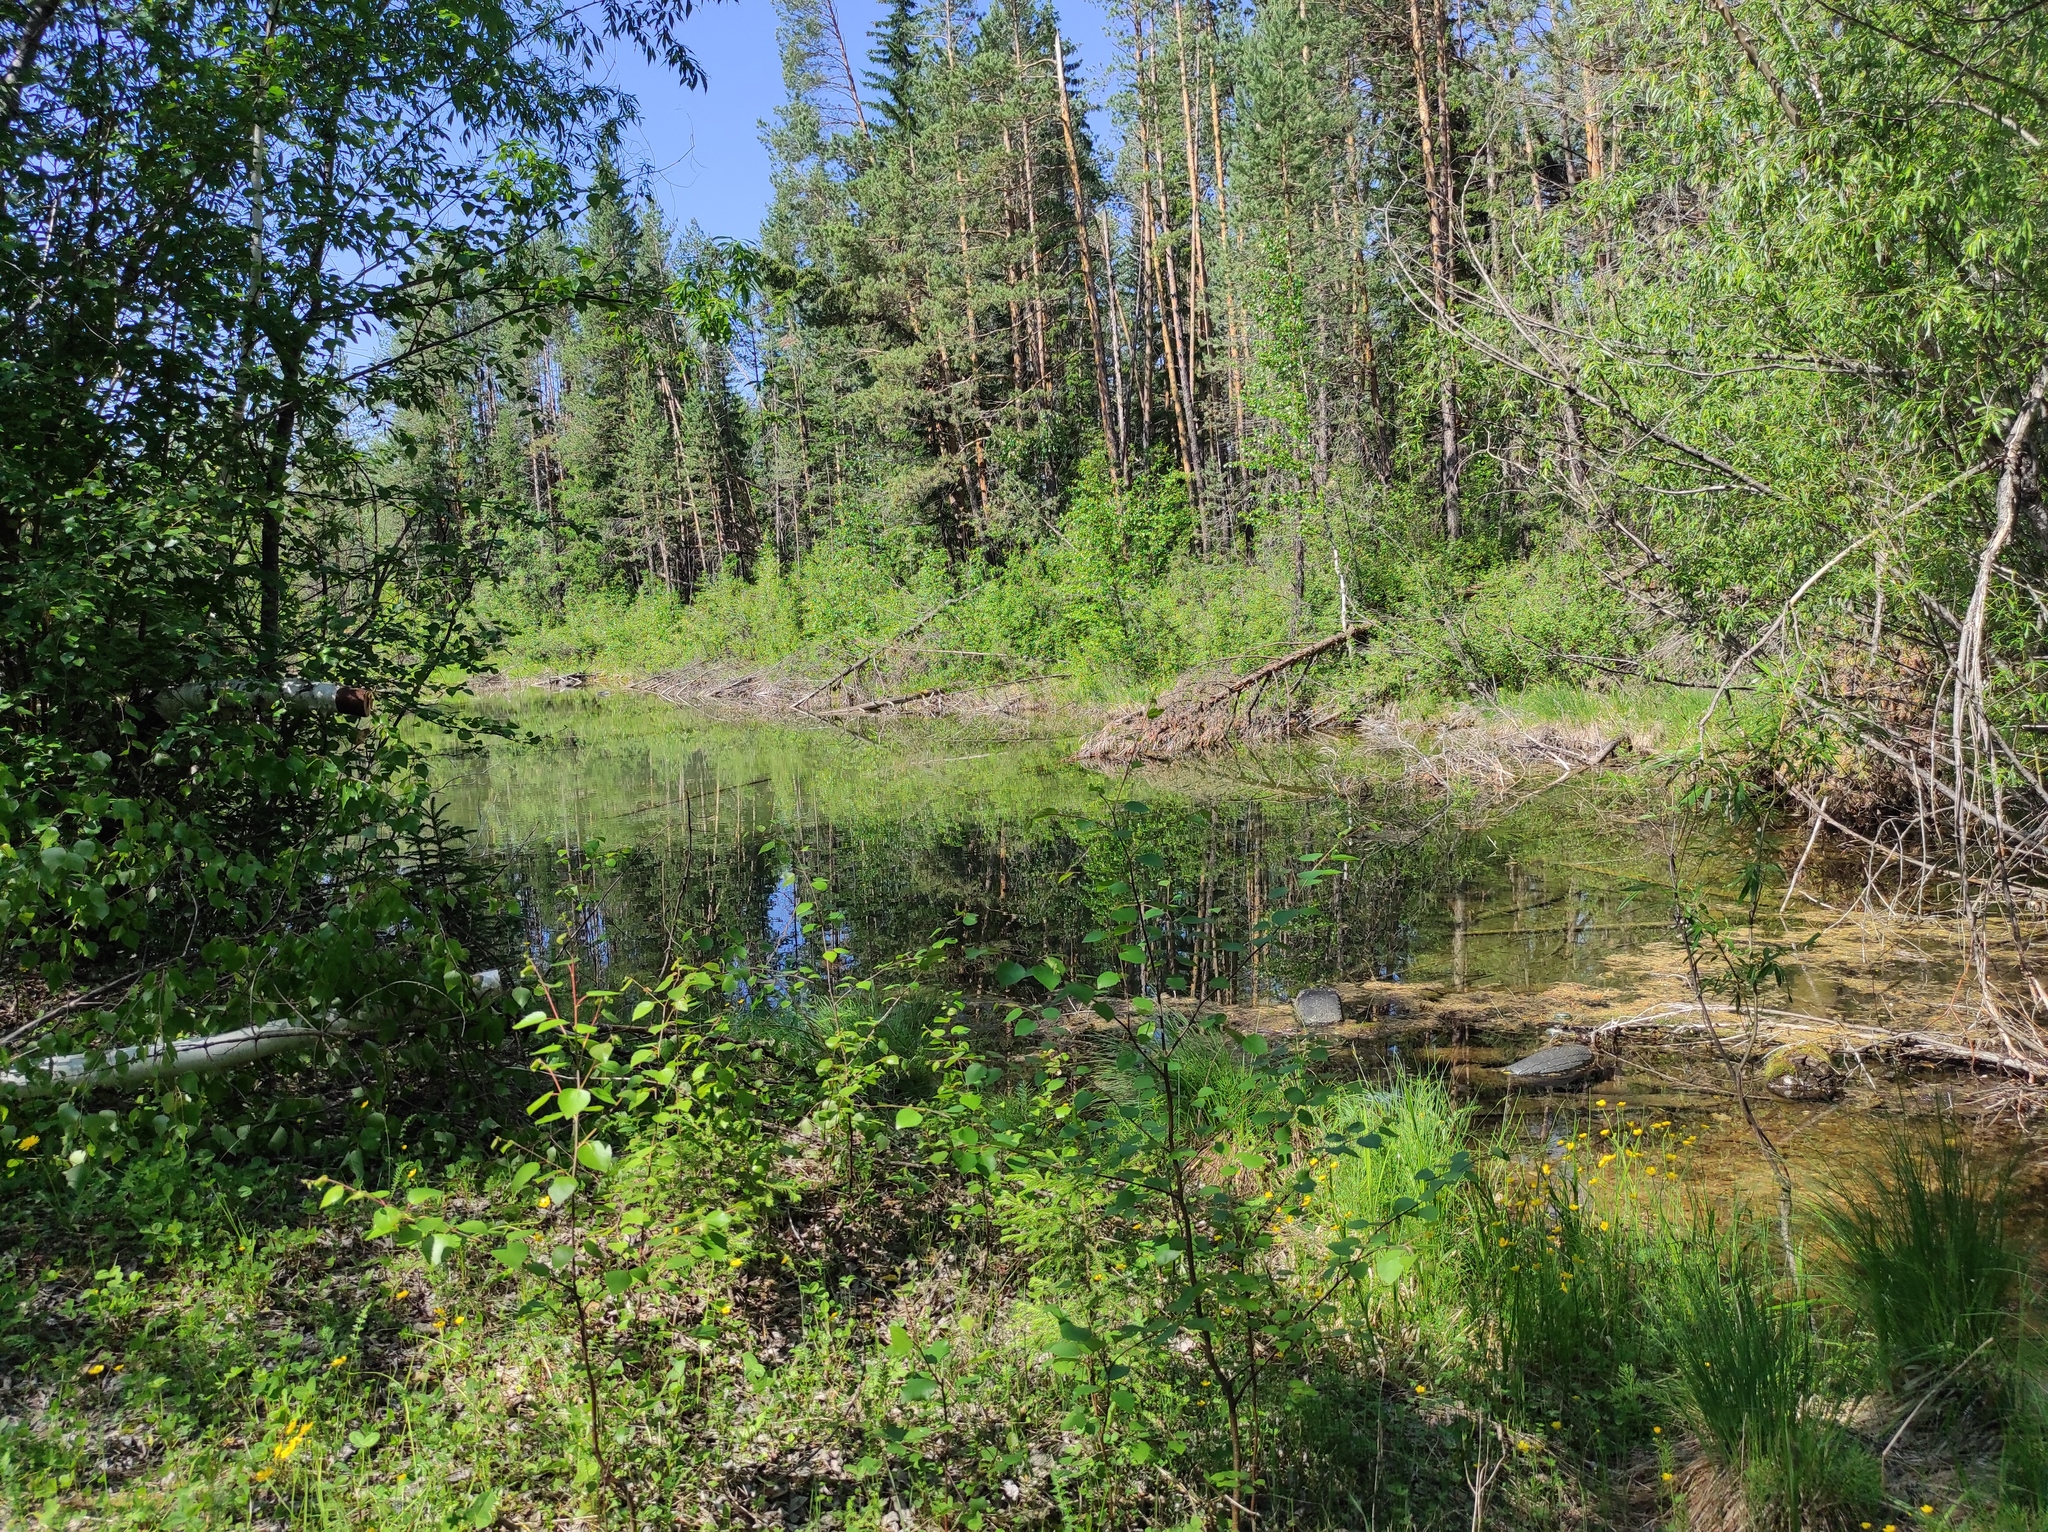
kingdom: Plantae
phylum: Tracheophyta
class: Pinopsida
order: Pinales
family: Pinaceae
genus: Picea
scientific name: Picea obovata
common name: Siberian spruce
